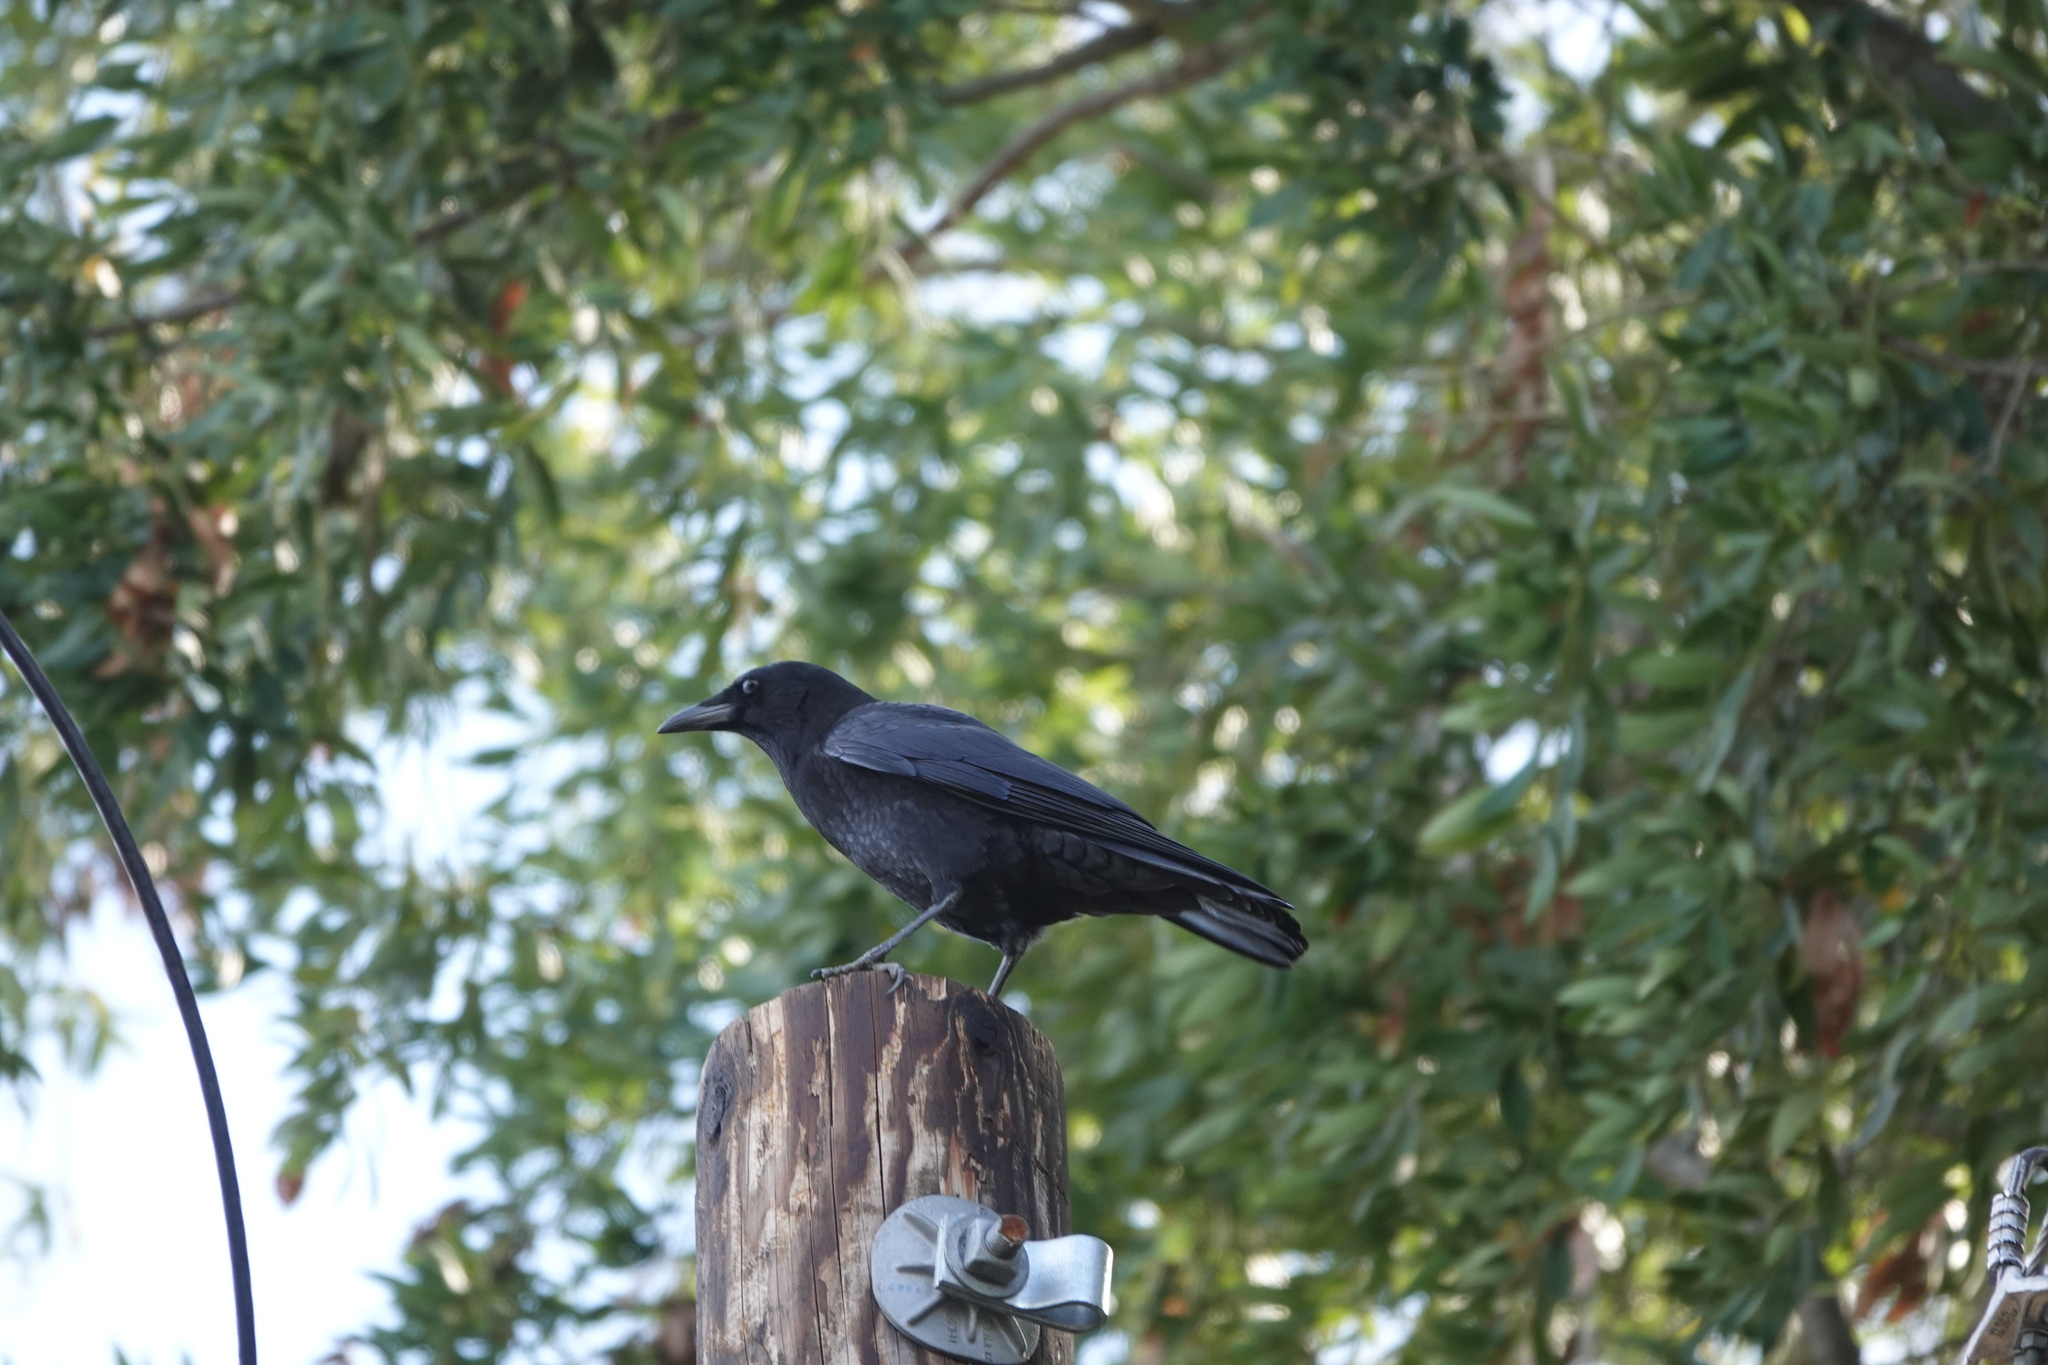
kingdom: Animalia
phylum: Chordata
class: Aves
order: Passeriformes
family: Corvidae
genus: Corvus
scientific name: Corvus brachyrhynchos
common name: American crow
